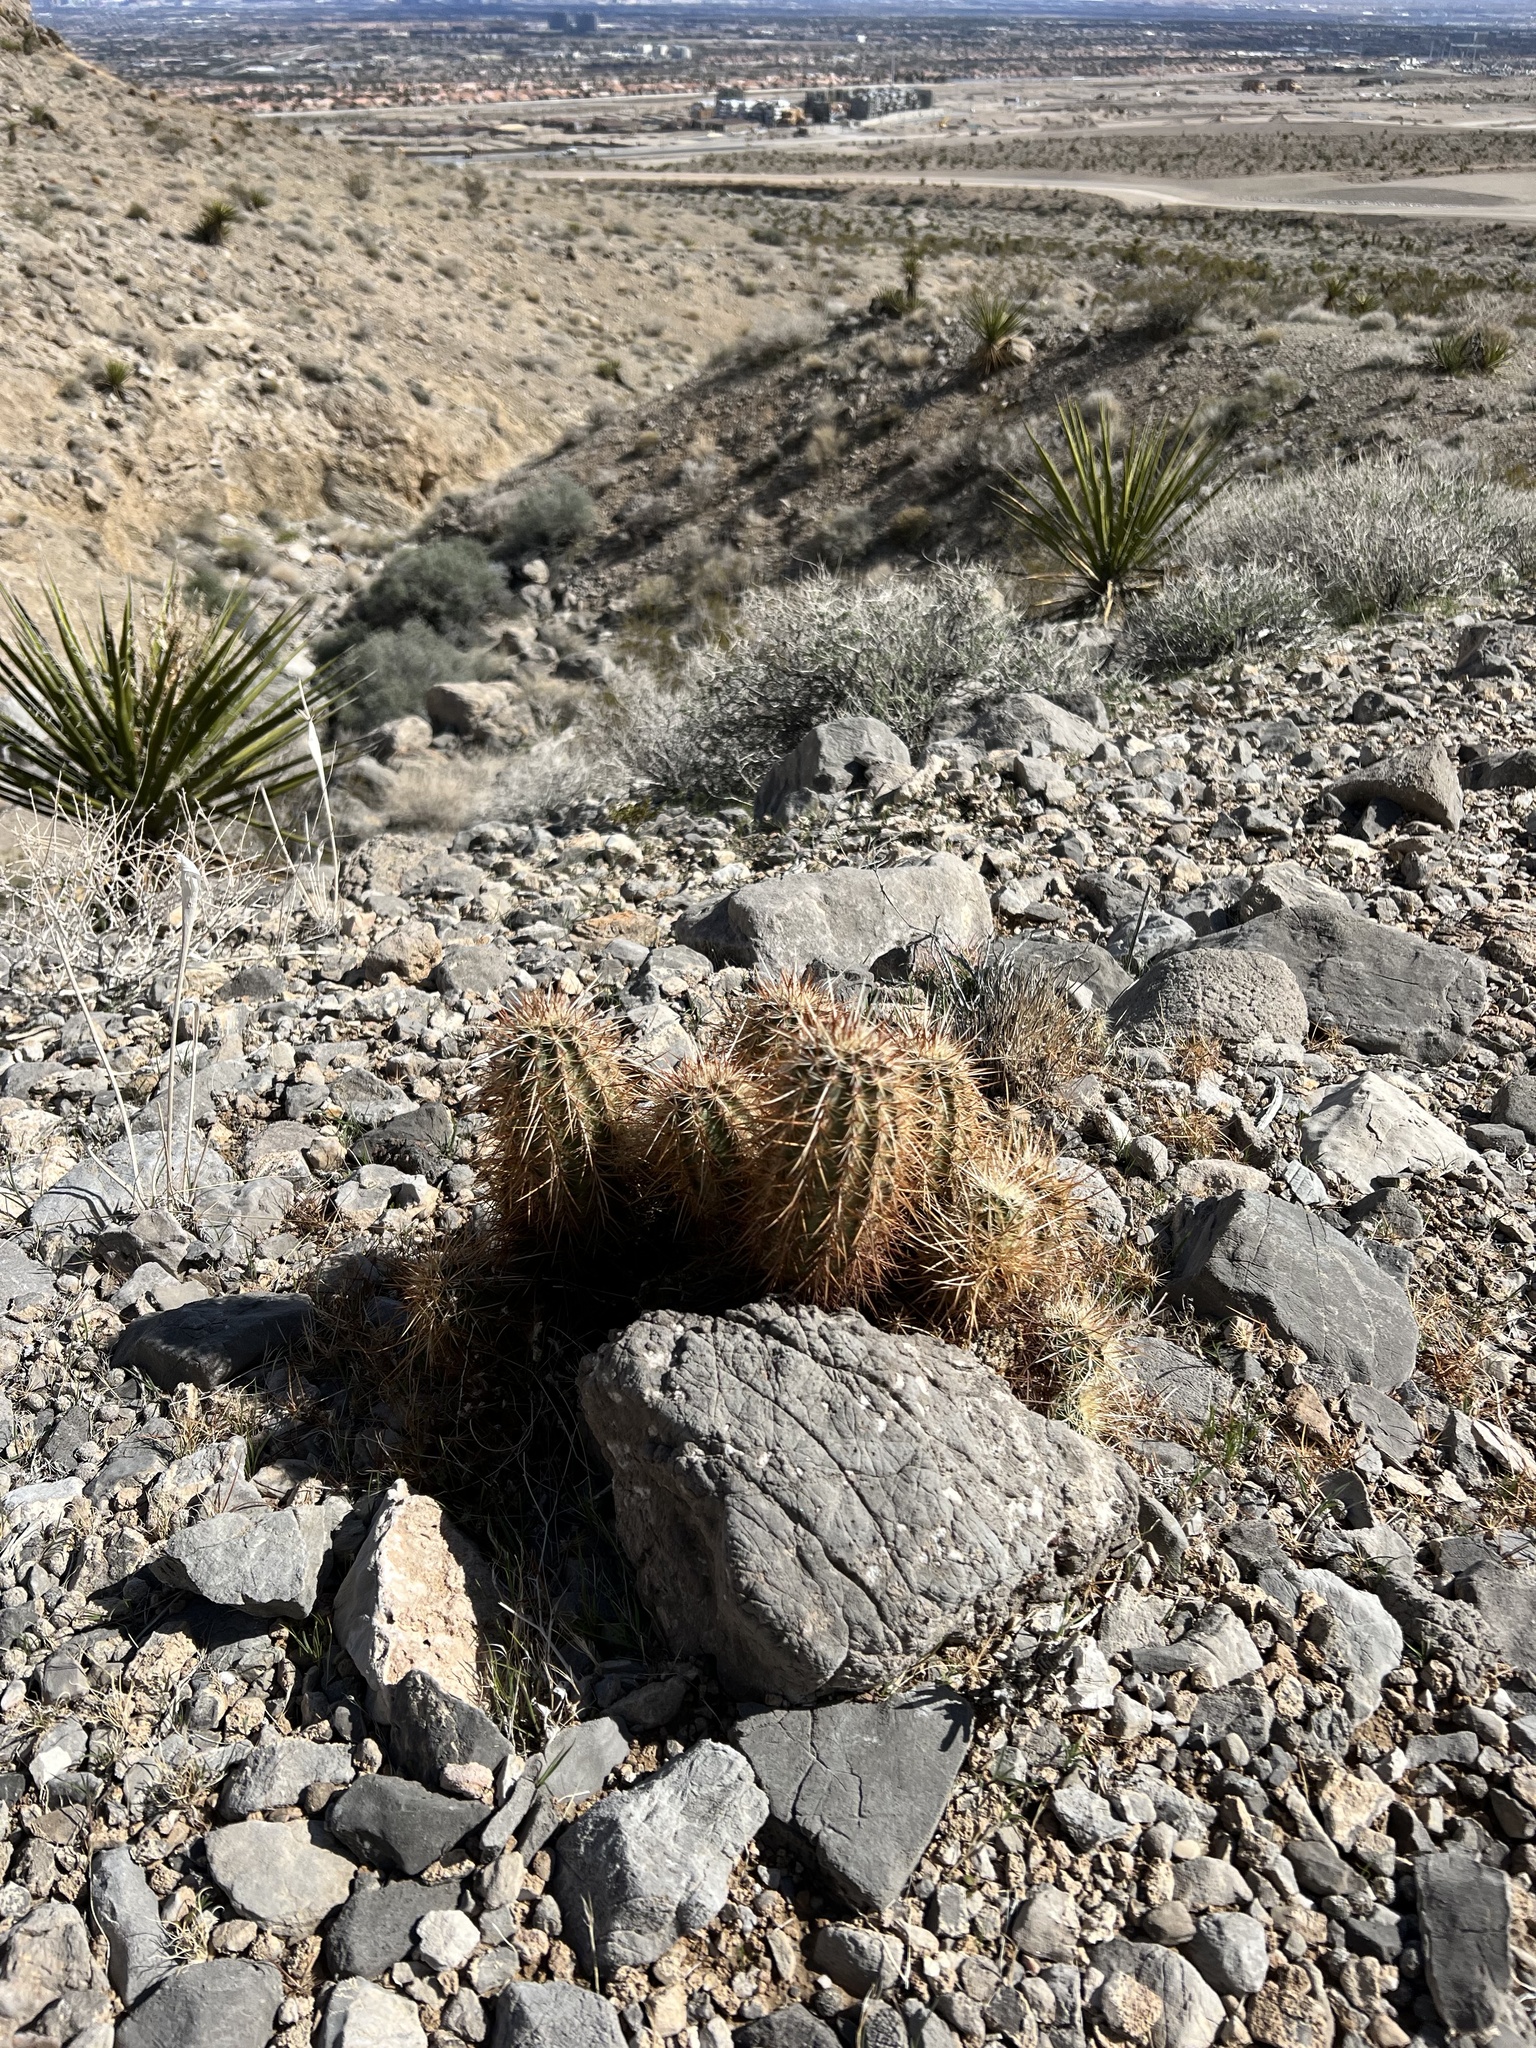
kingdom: Plantae
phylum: Tracheophyta
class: Magnoliopsida
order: Caryophyllales
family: Cactaceae
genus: Echinocereus
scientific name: Echinocereus engelmannii
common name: Engelmann's hedgehog cactus
